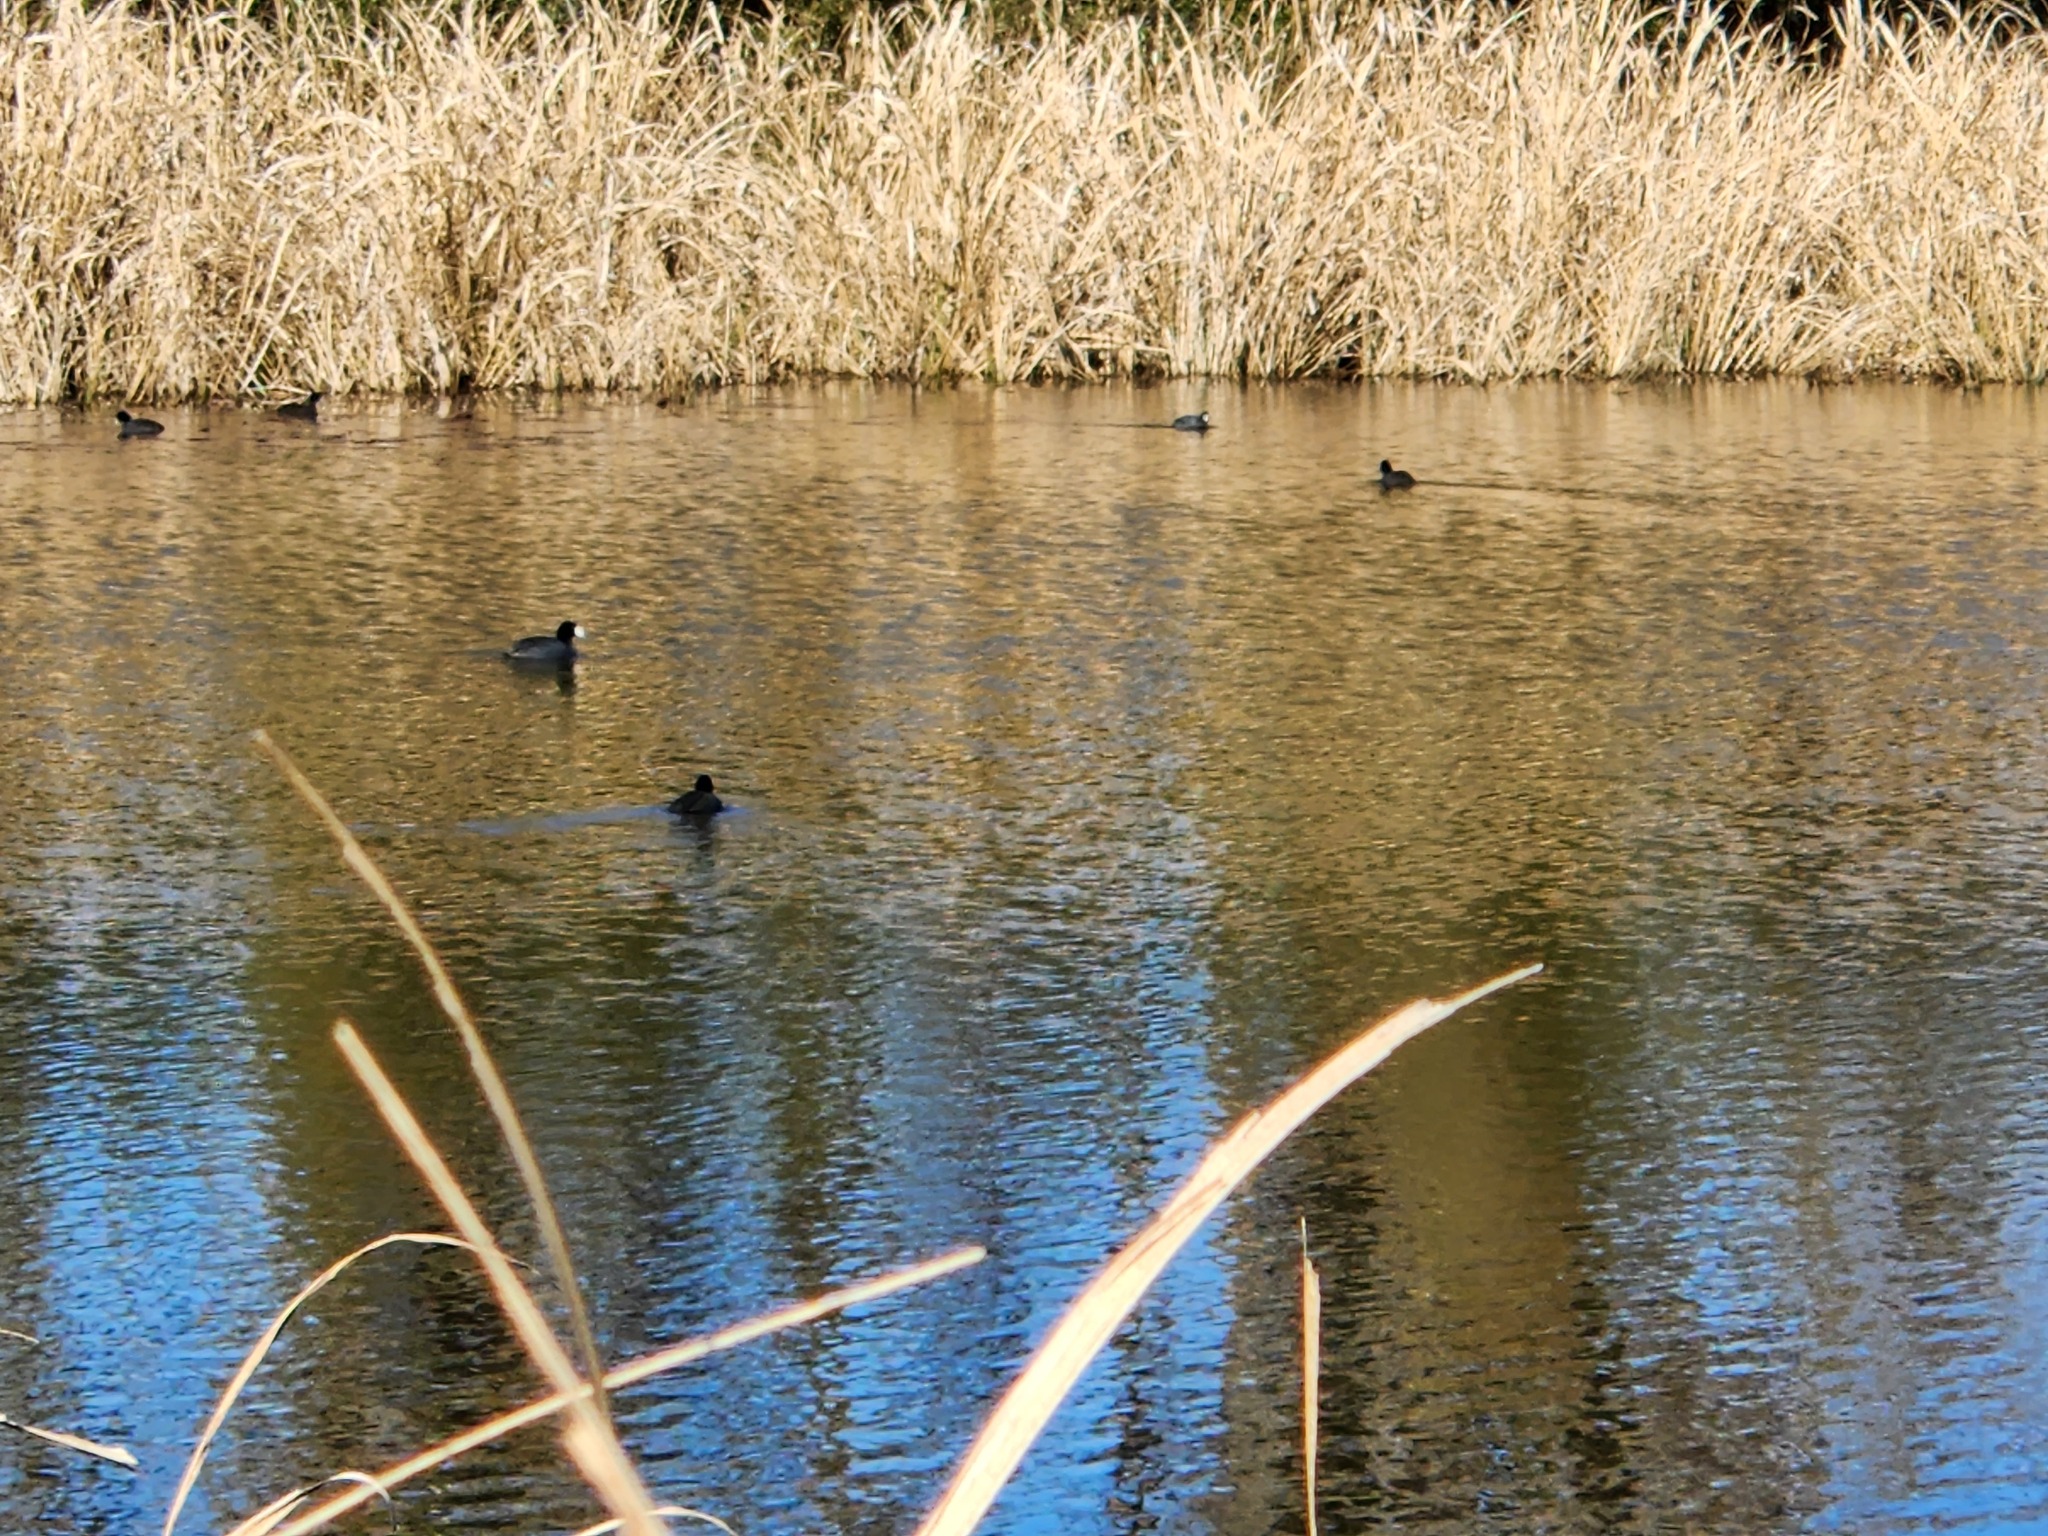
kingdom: Animalia
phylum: Chordata
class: Aves
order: Gruiformes
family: Rallidae
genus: Fulica
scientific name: Fulica americana
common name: American coot
